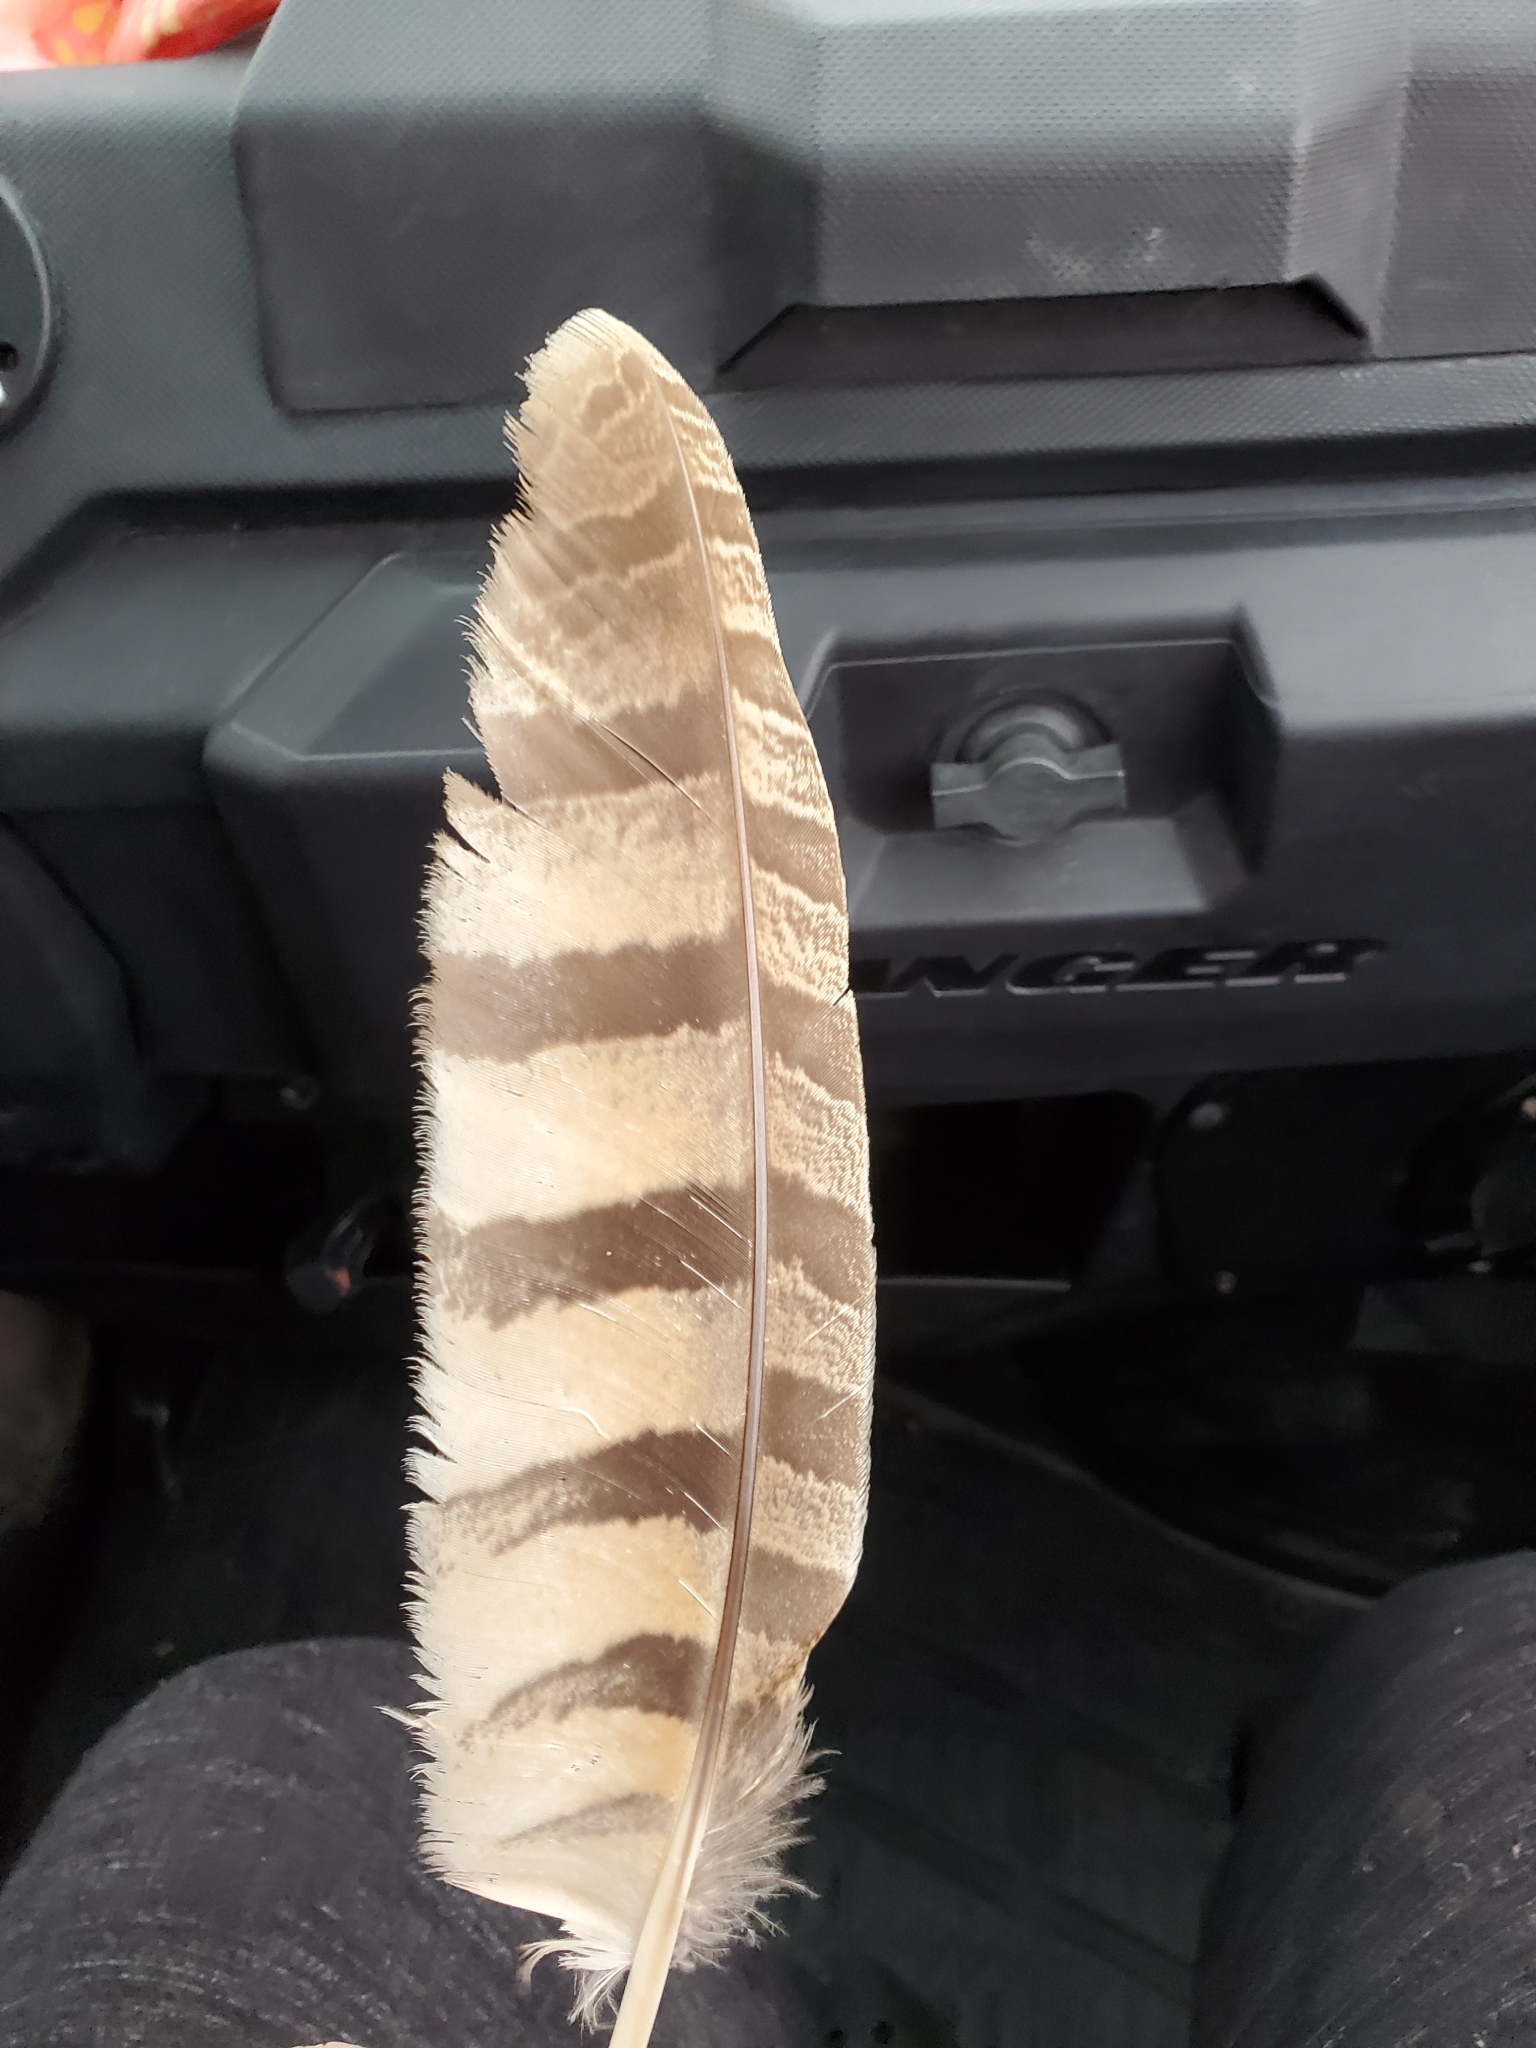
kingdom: Animalia
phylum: Chordata
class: Aves
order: Strigiformes
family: Strigidae
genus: Bubo
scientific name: Bubo virginianus
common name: Great horned owl
